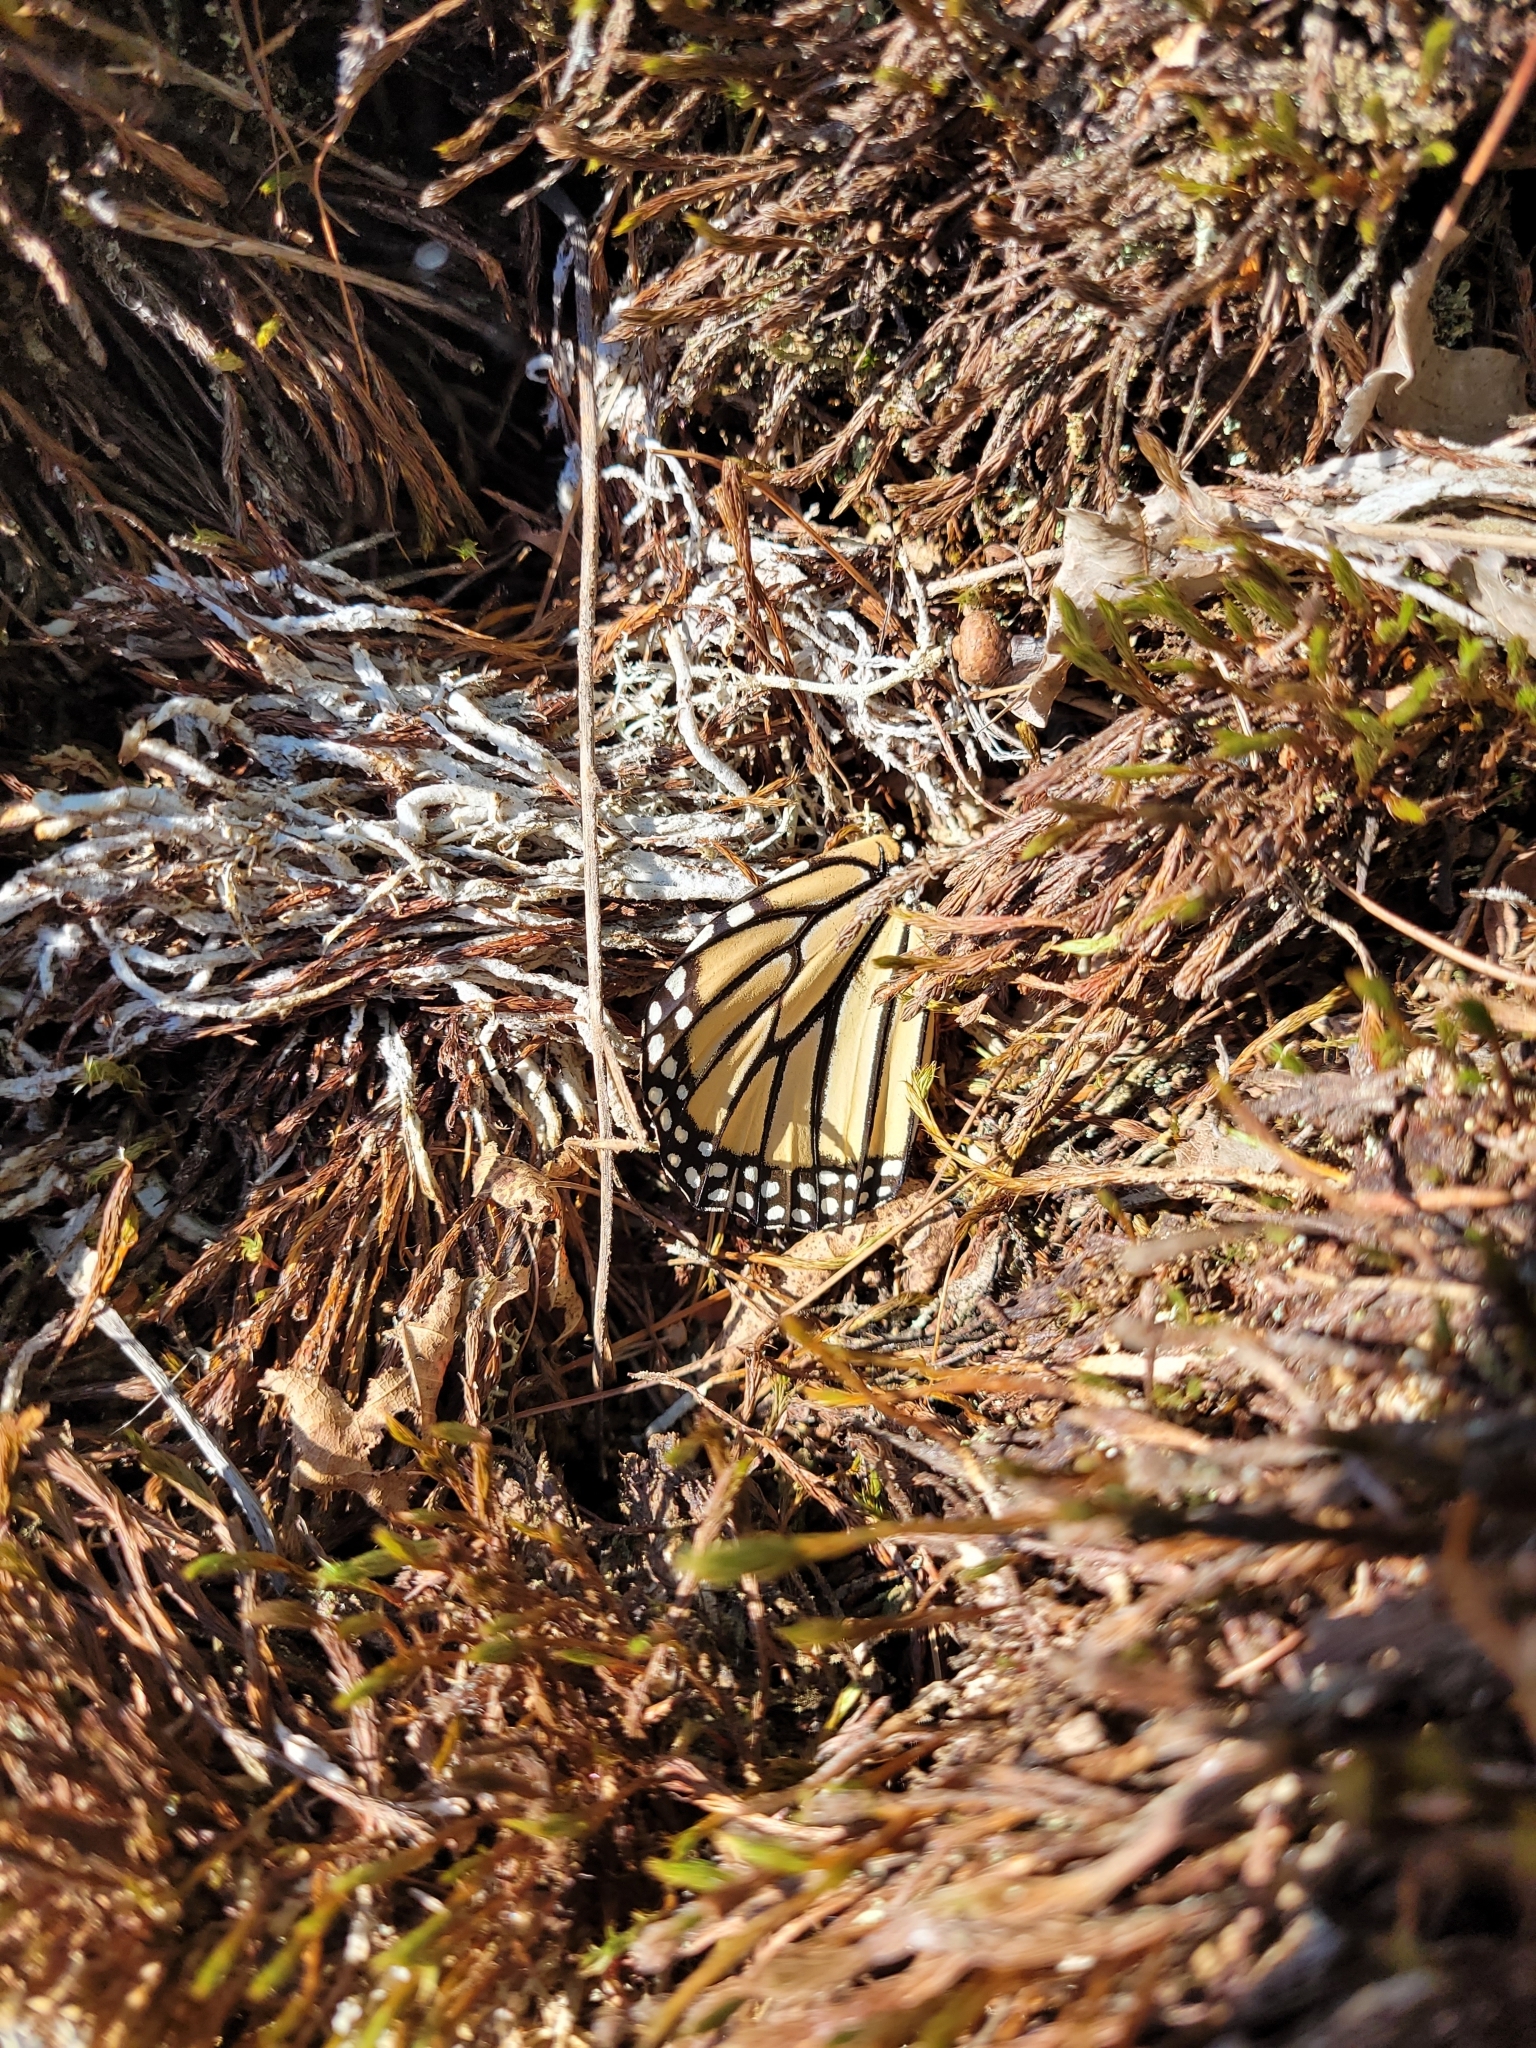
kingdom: Animalia
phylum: Arthropoda
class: Insecta
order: Lepidoptera
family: Nymphalidae
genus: Danaus
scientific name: Danaus plexippus
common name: Monarch
